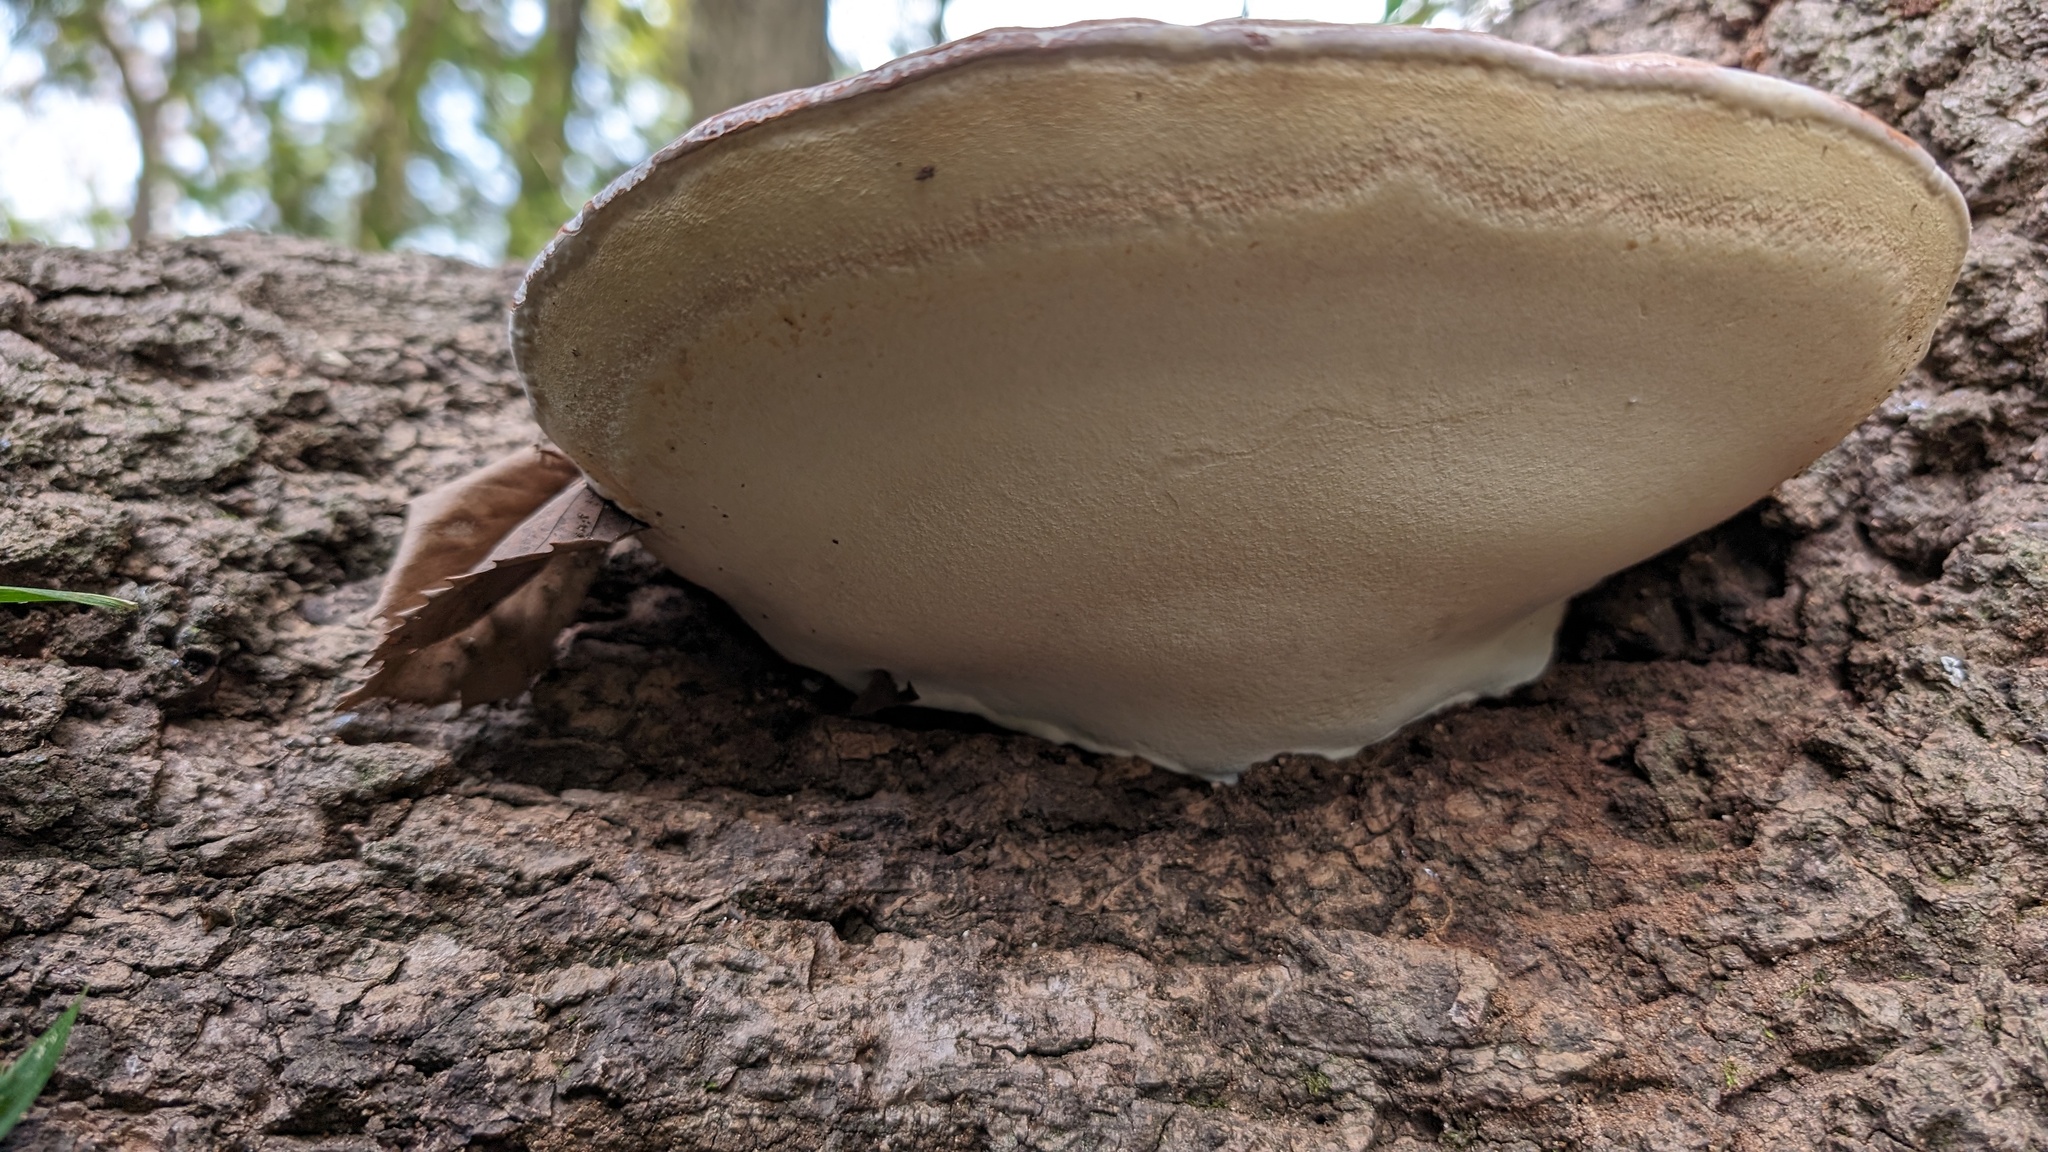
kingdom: Fungi
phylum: Basidiomycota
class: Agaricomycetes
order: Polyporales
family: Polyporaceae
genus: Ganoderma
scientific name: Ganoderma applanatum
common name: Artist's bracket
